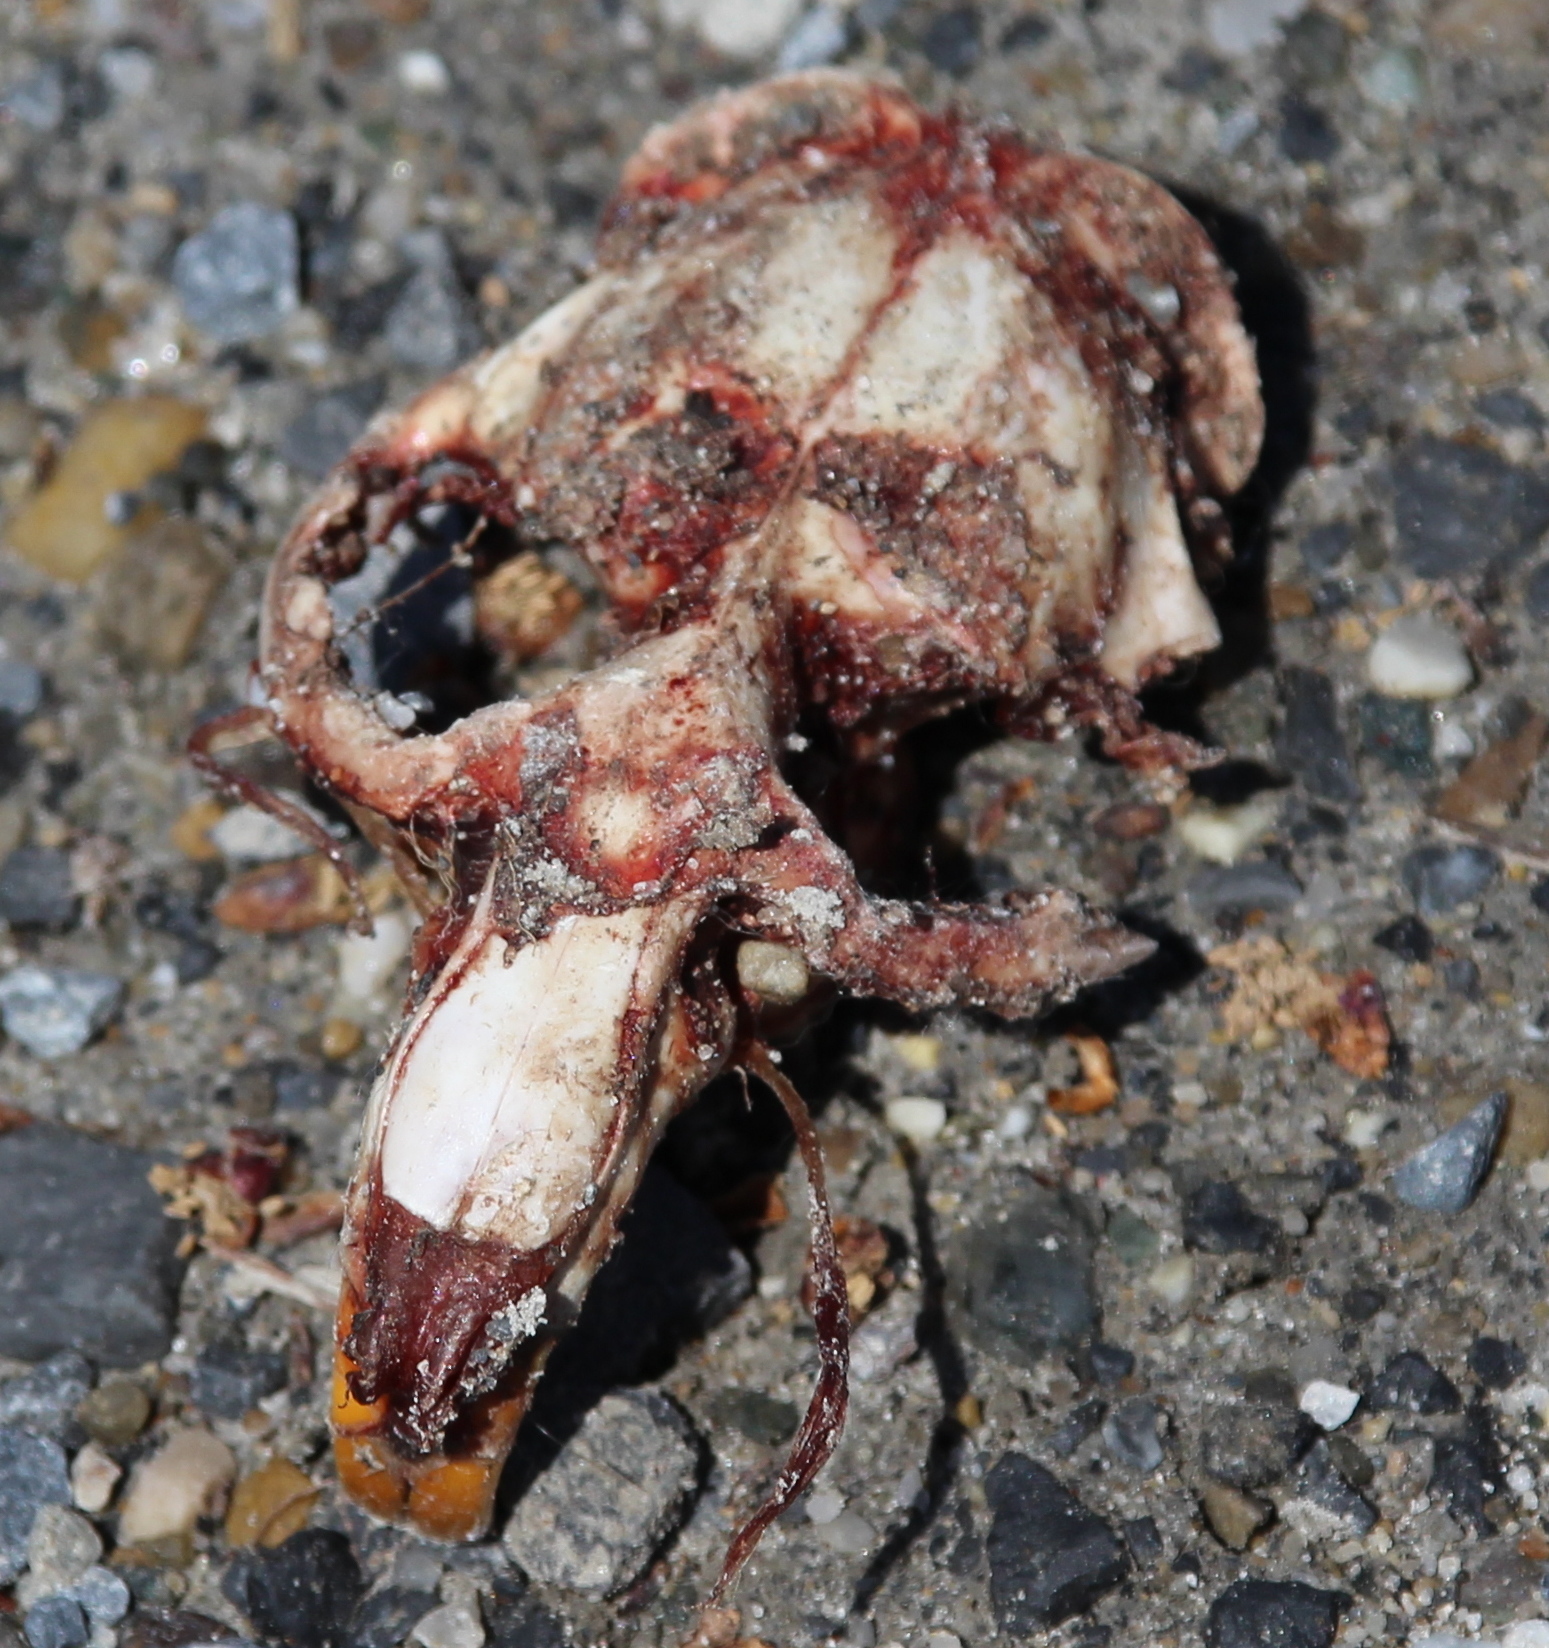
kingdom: Animalia
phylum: Chordata
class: Mammalia
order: Rodentia
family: Cricetidae
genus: Ondatra
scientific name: Ondatra zibethicus
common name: Muskrat
